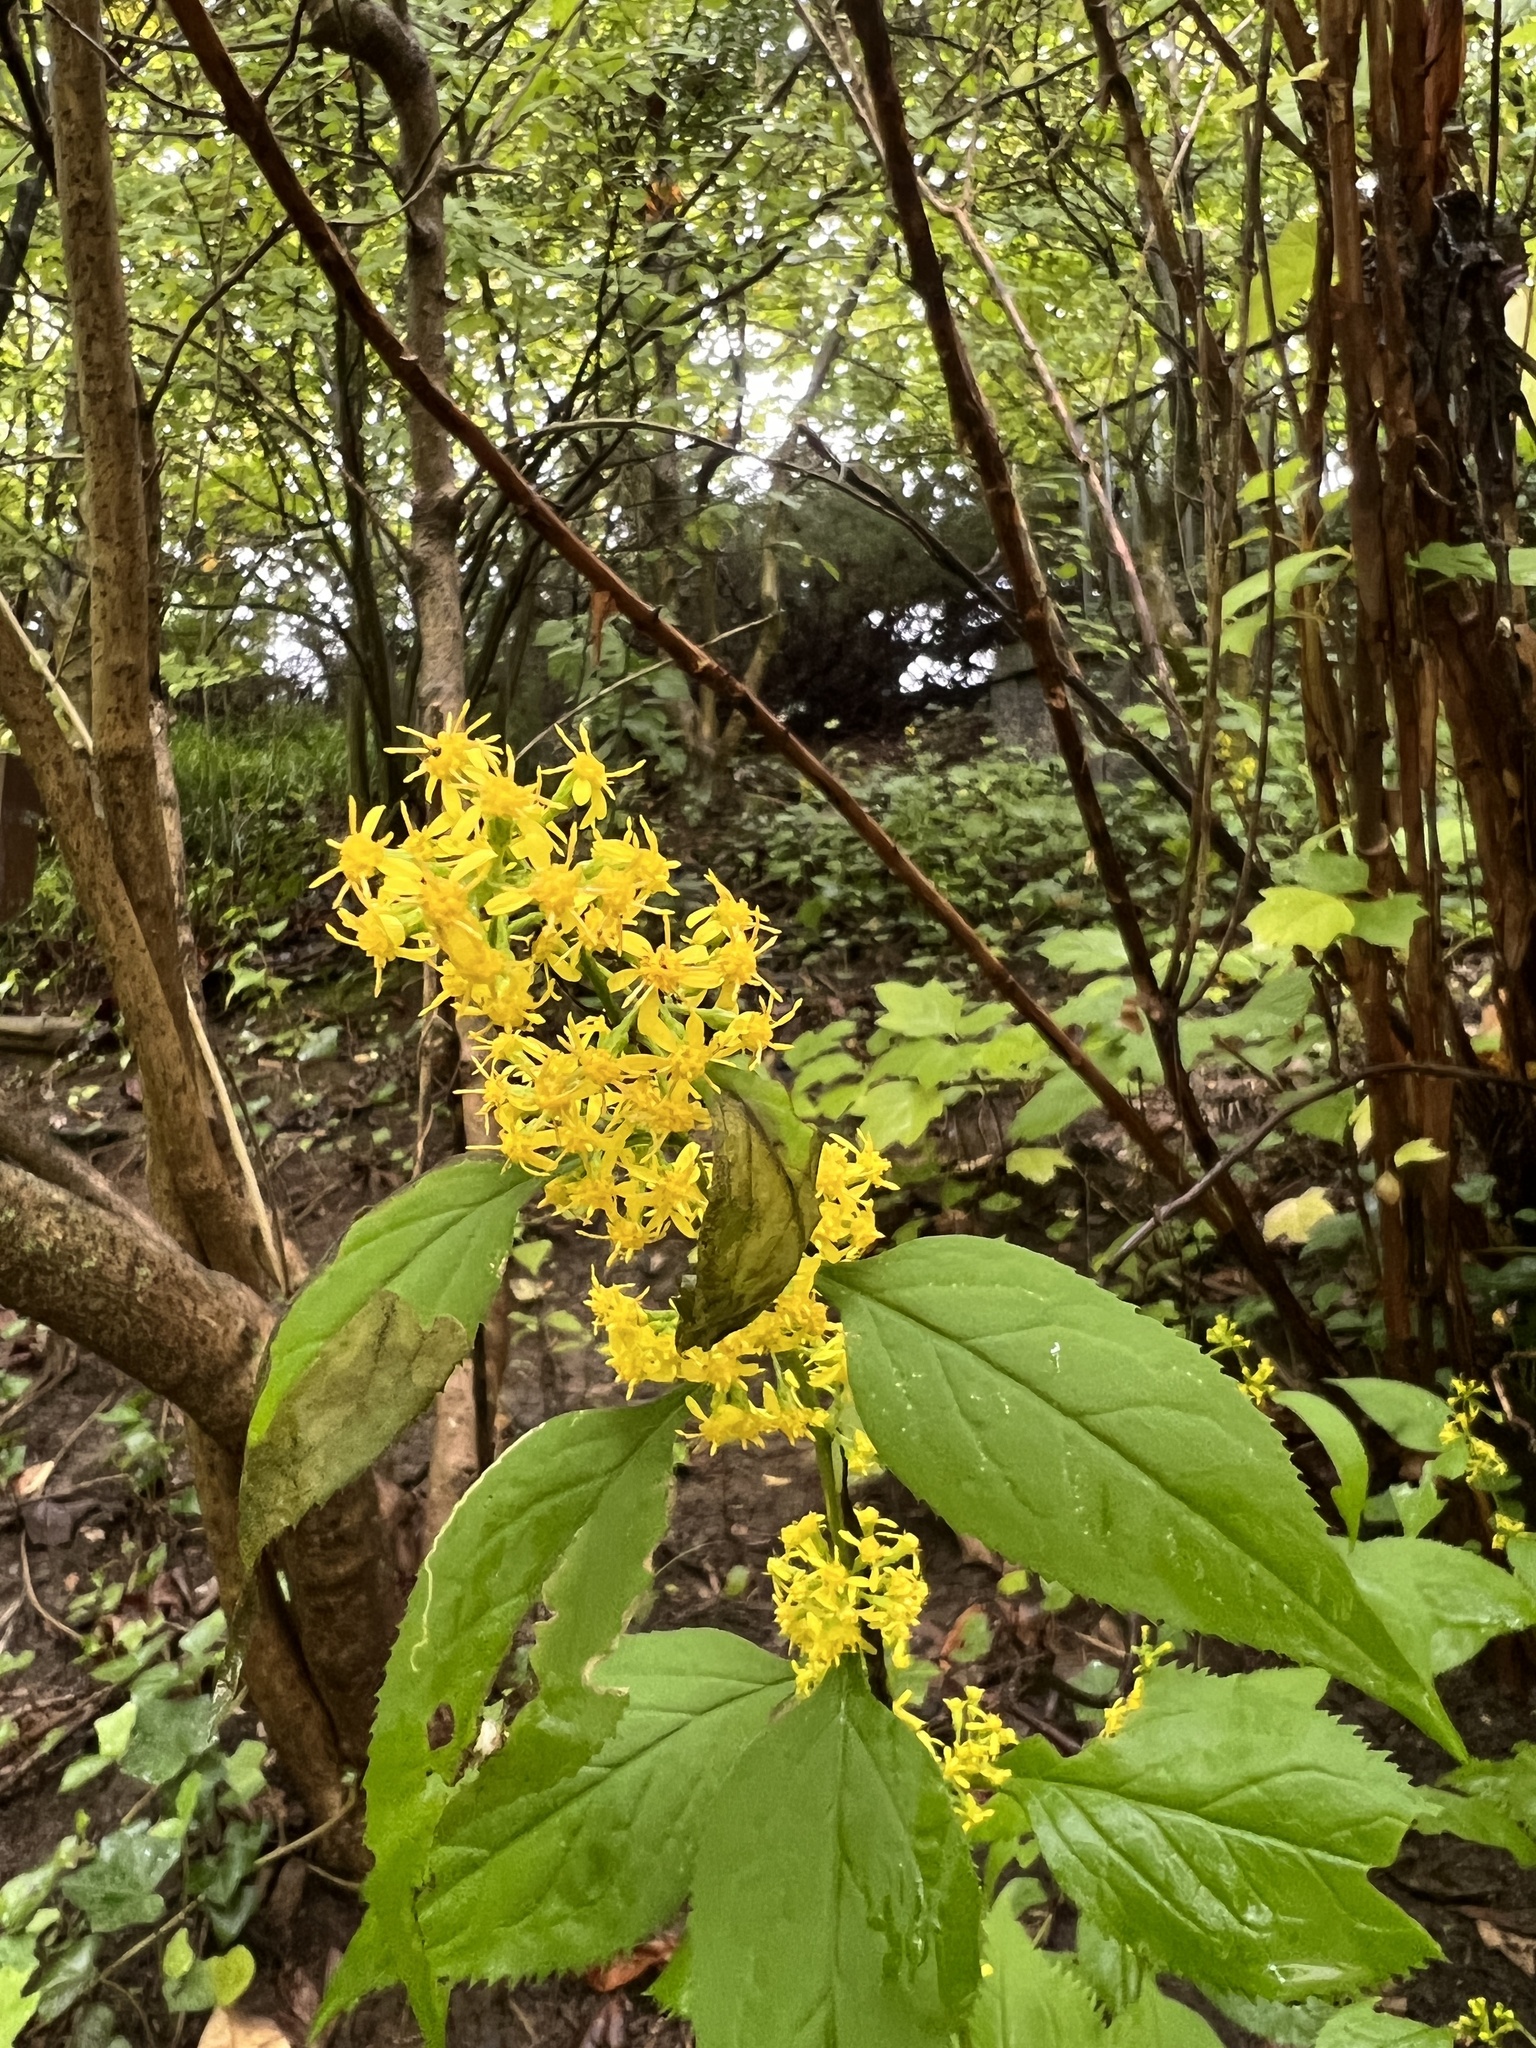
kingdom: Plantae
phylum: Tracheophyta
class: Magnoliopsida
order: Asterales
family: Asteraceae
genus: Solidago
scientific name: Solidago flexicaulis
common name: Zig-zag goldenrod
